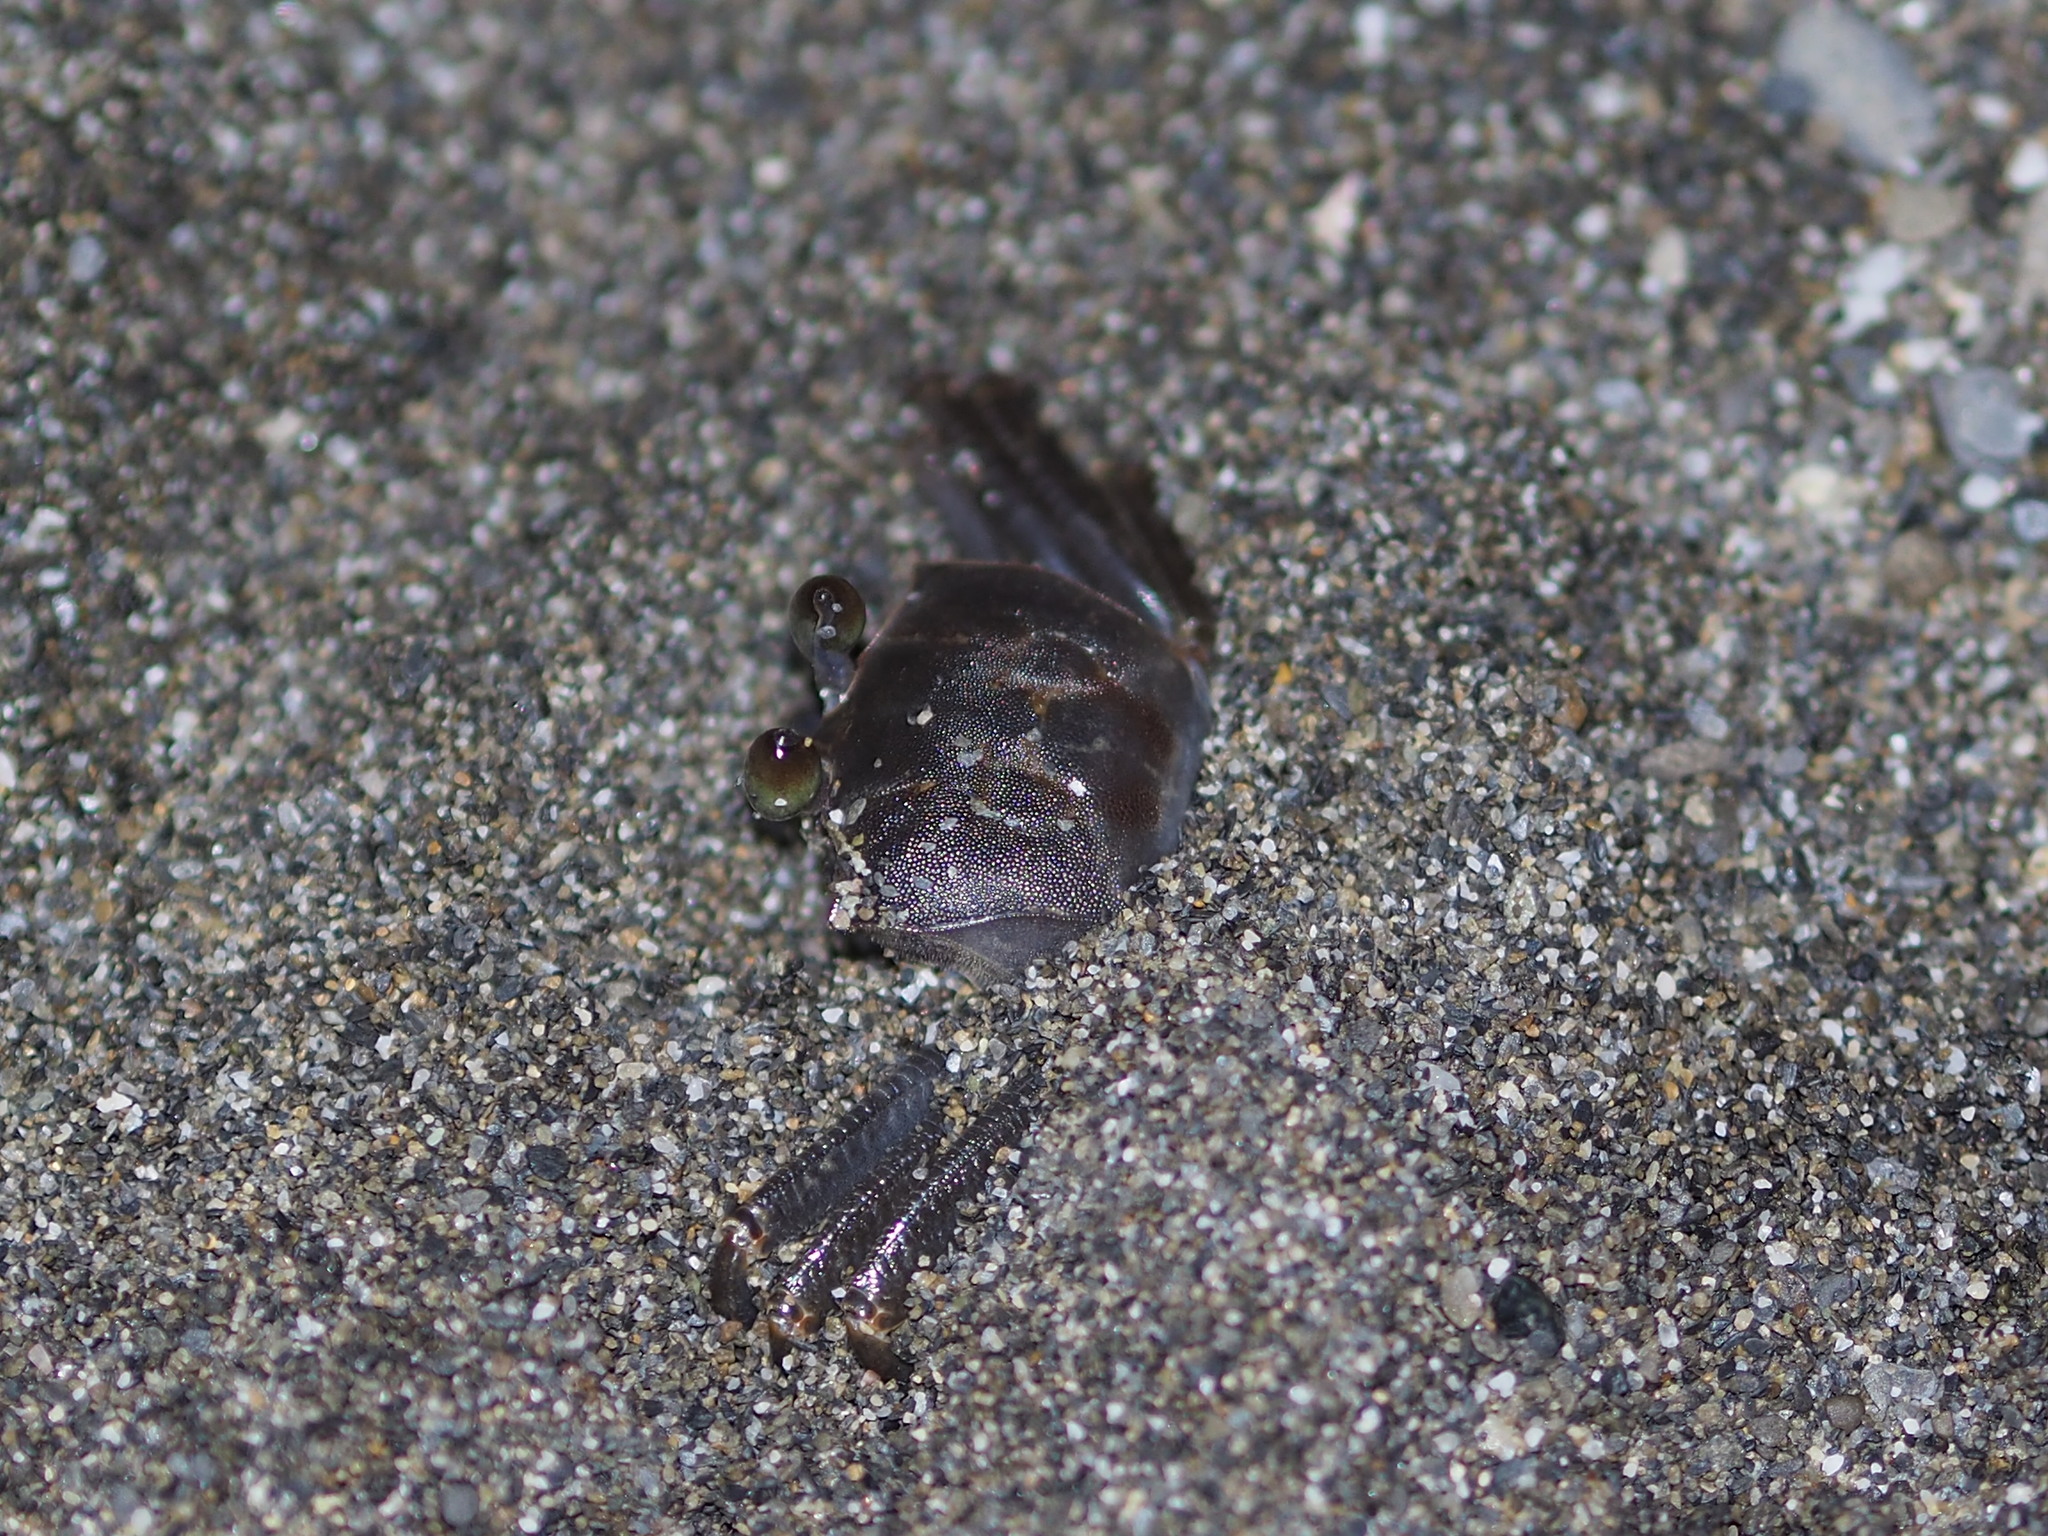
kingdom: Animalia
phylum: Arthropoda
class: Malacostraca
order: Decapoda
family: Ocypodidae
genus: Ocypode
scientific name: Ocypode ceratophthalmus
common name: Indo-pacific ghost crab
